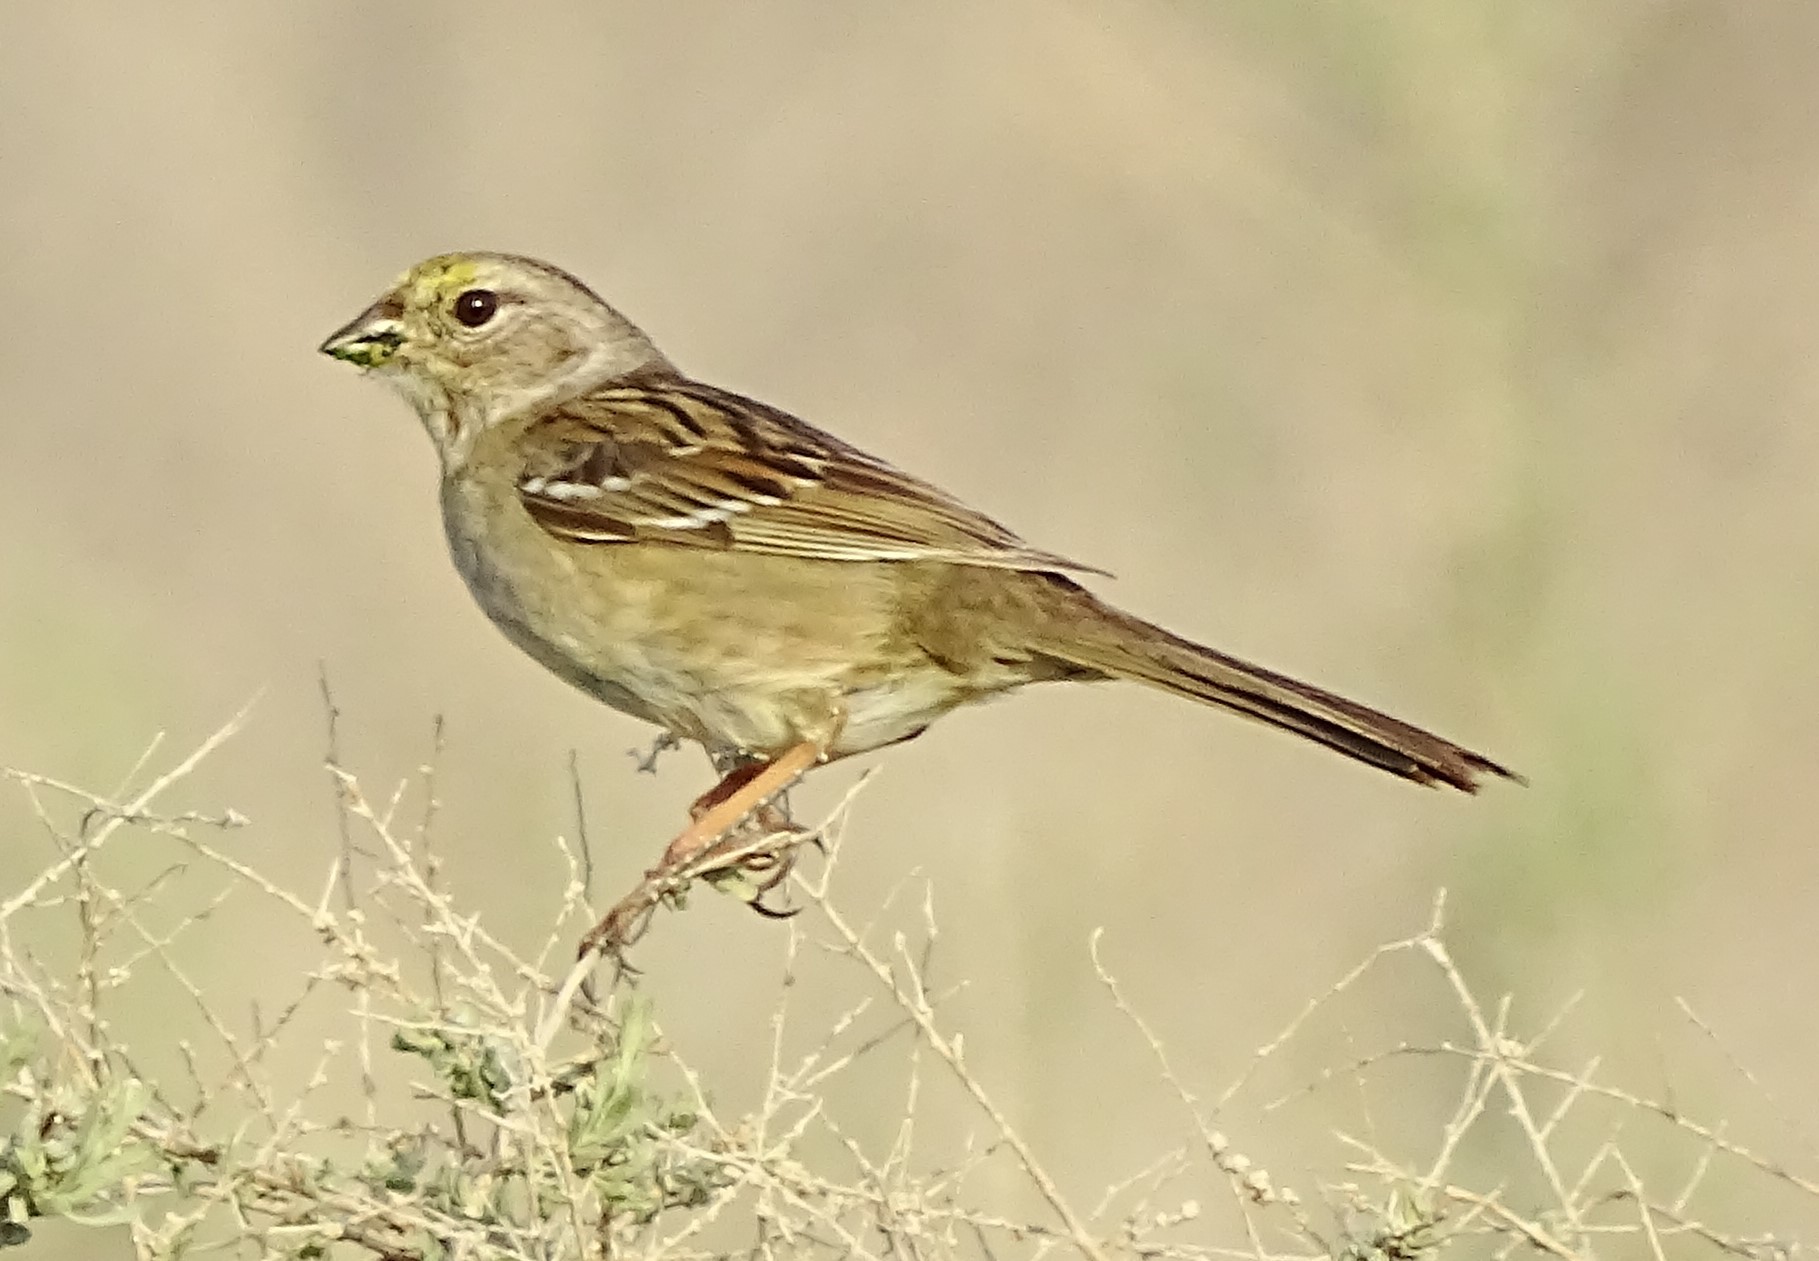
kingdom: Animalia
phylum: Chordata
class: Aves
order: Passeriformes
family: Passerellidae
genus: Zonotrichia
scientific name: Zonotrichia atricapilla
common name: Golden-crowned sparrow
